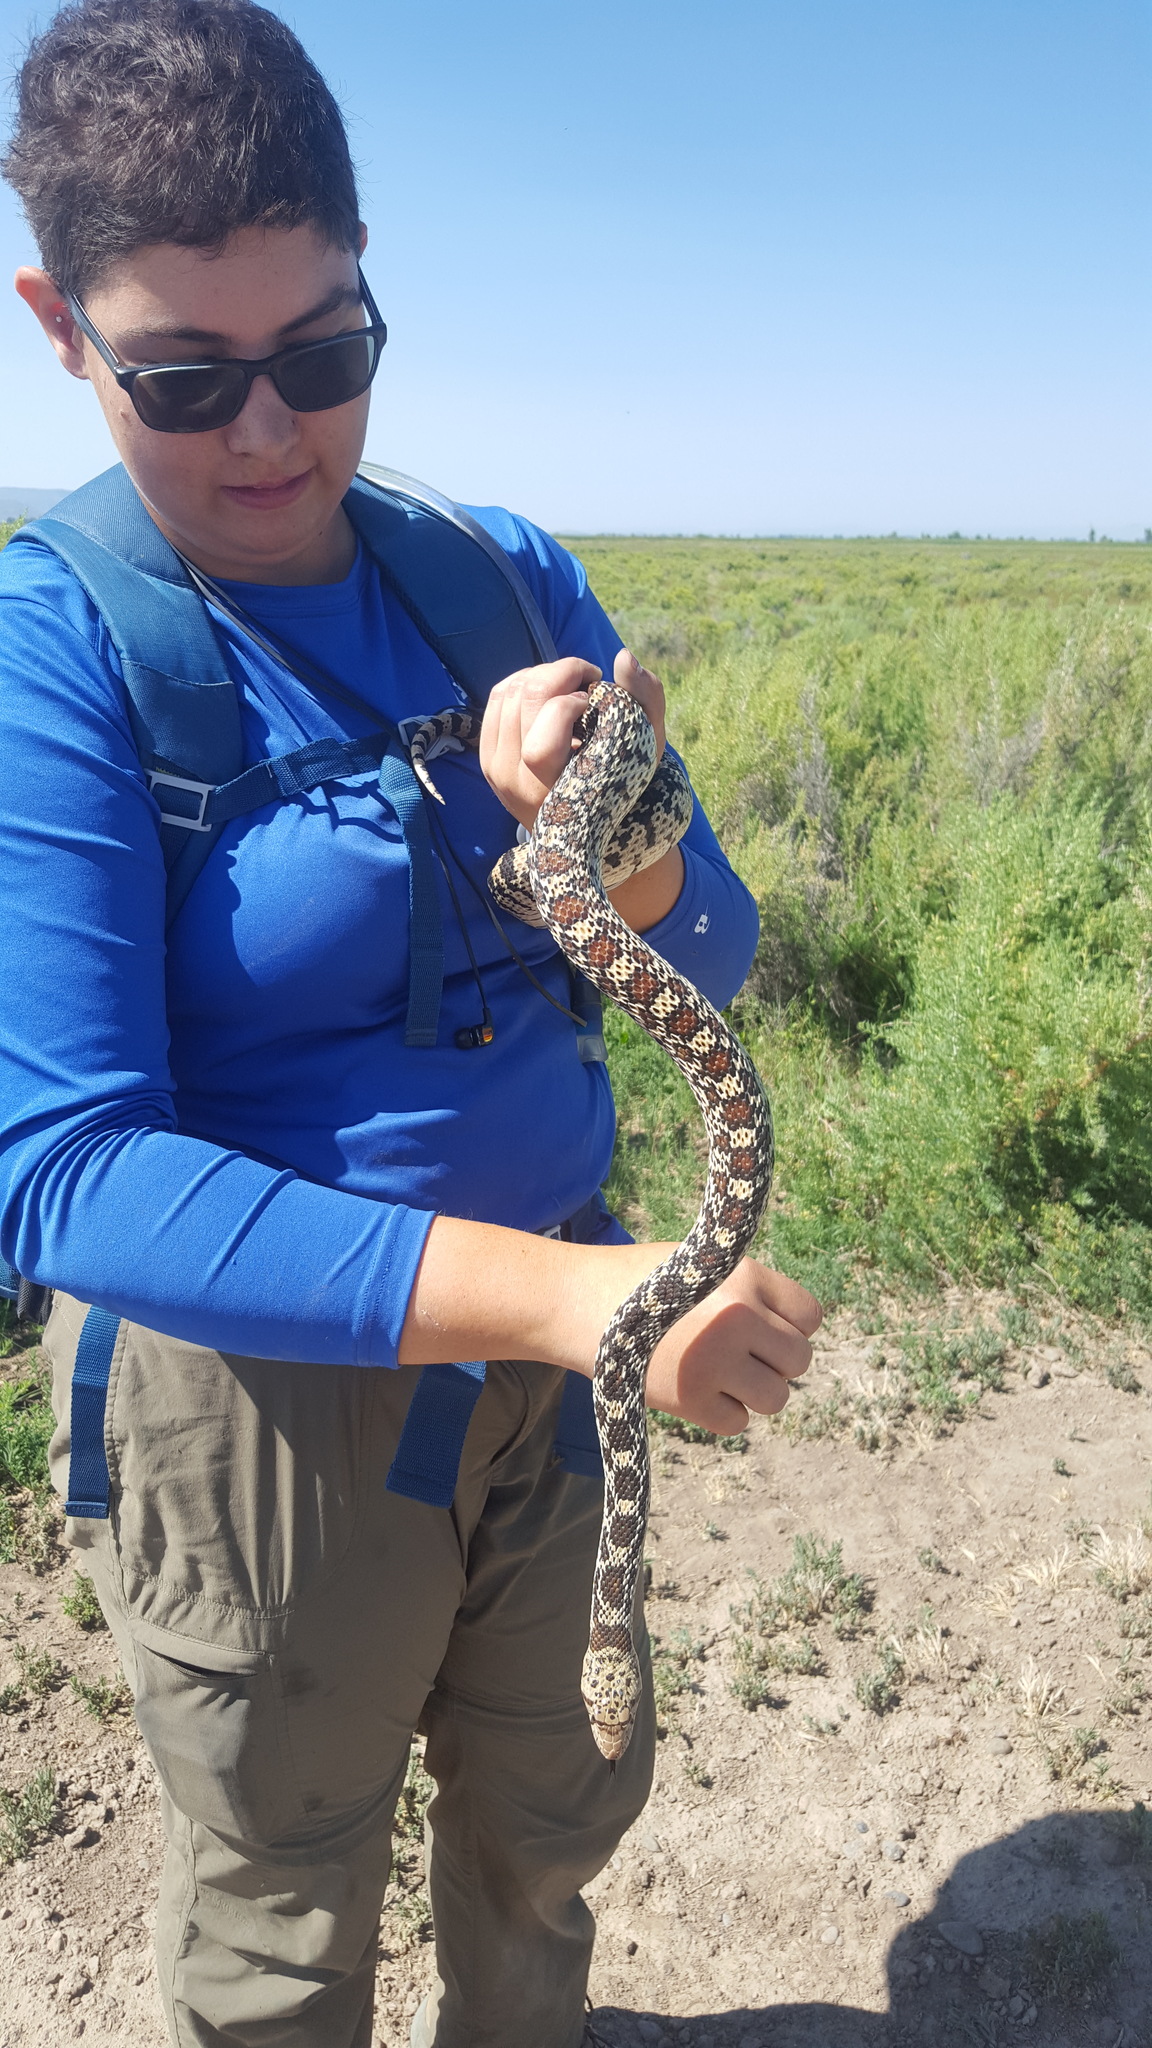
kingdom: Animalia
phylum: Chordata
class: Squamata
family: Colubridae
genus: Pituophis
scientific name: Pituophis catenifer
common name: Gopher snake
